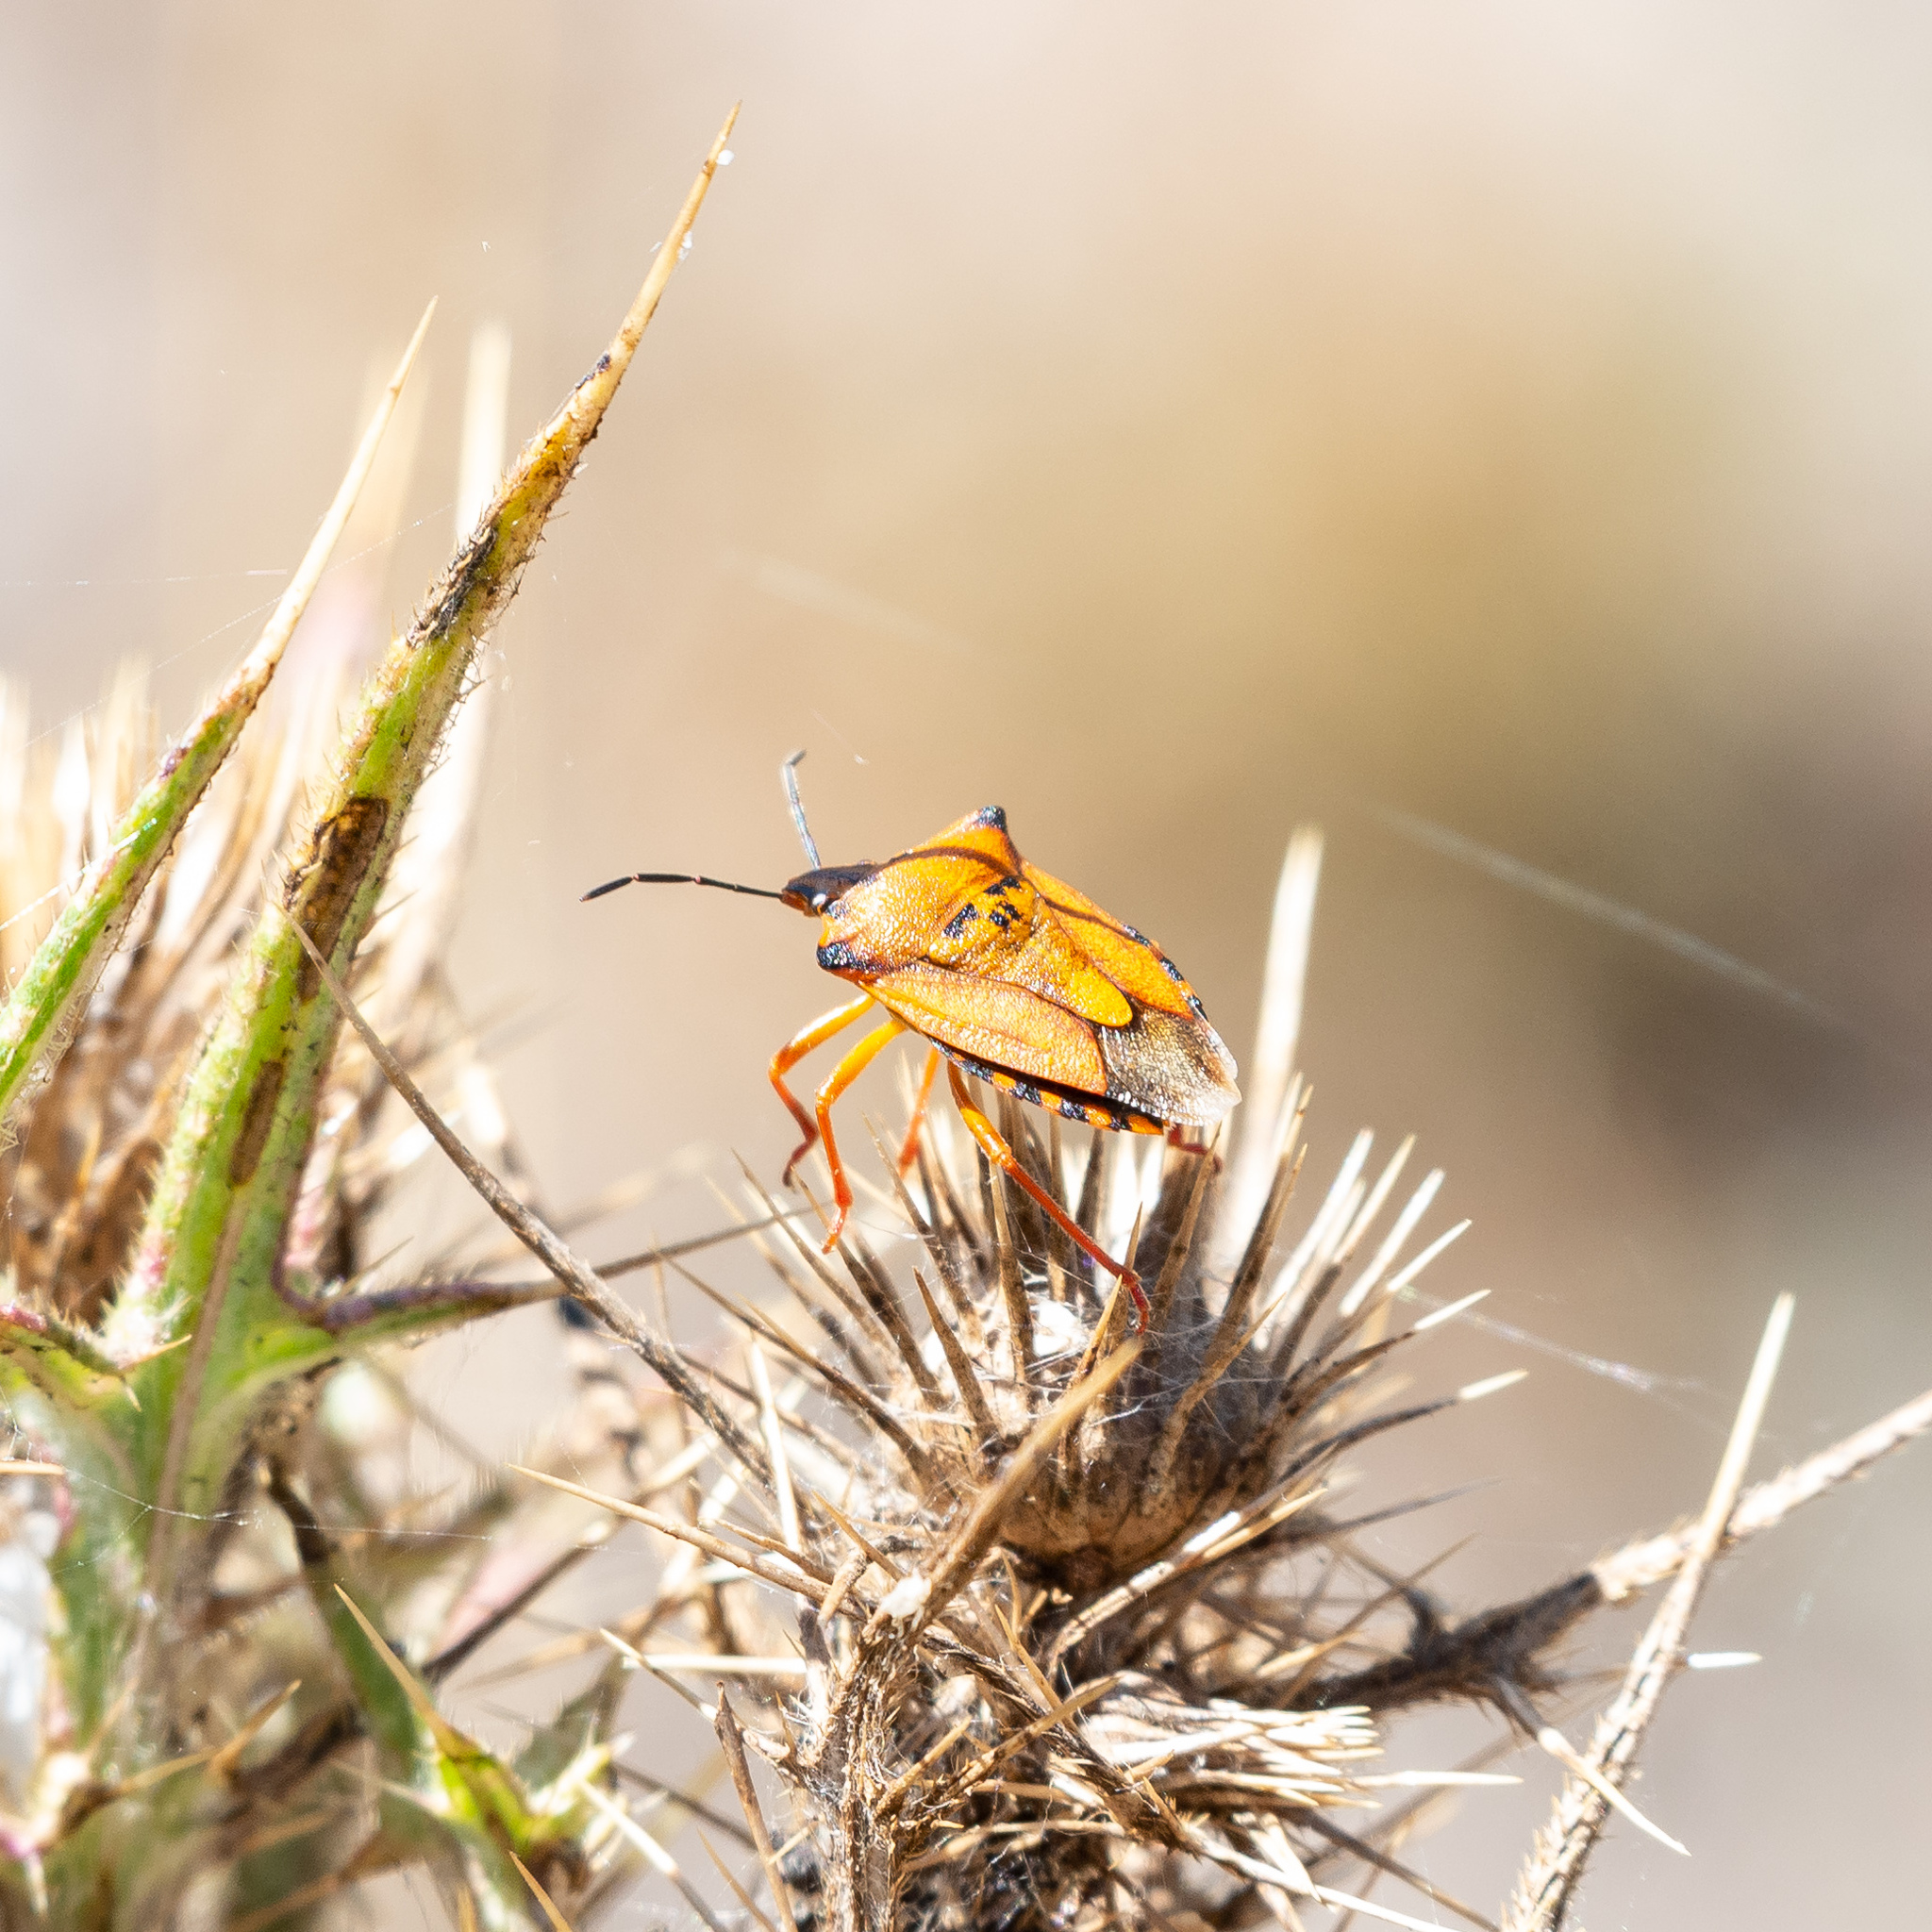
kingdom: Animalia
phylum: Arthropoda
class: Insecta
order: Hemiptera
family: Pentatomidae
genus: Carpocoris
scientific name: Carpocoris mediterraneus
